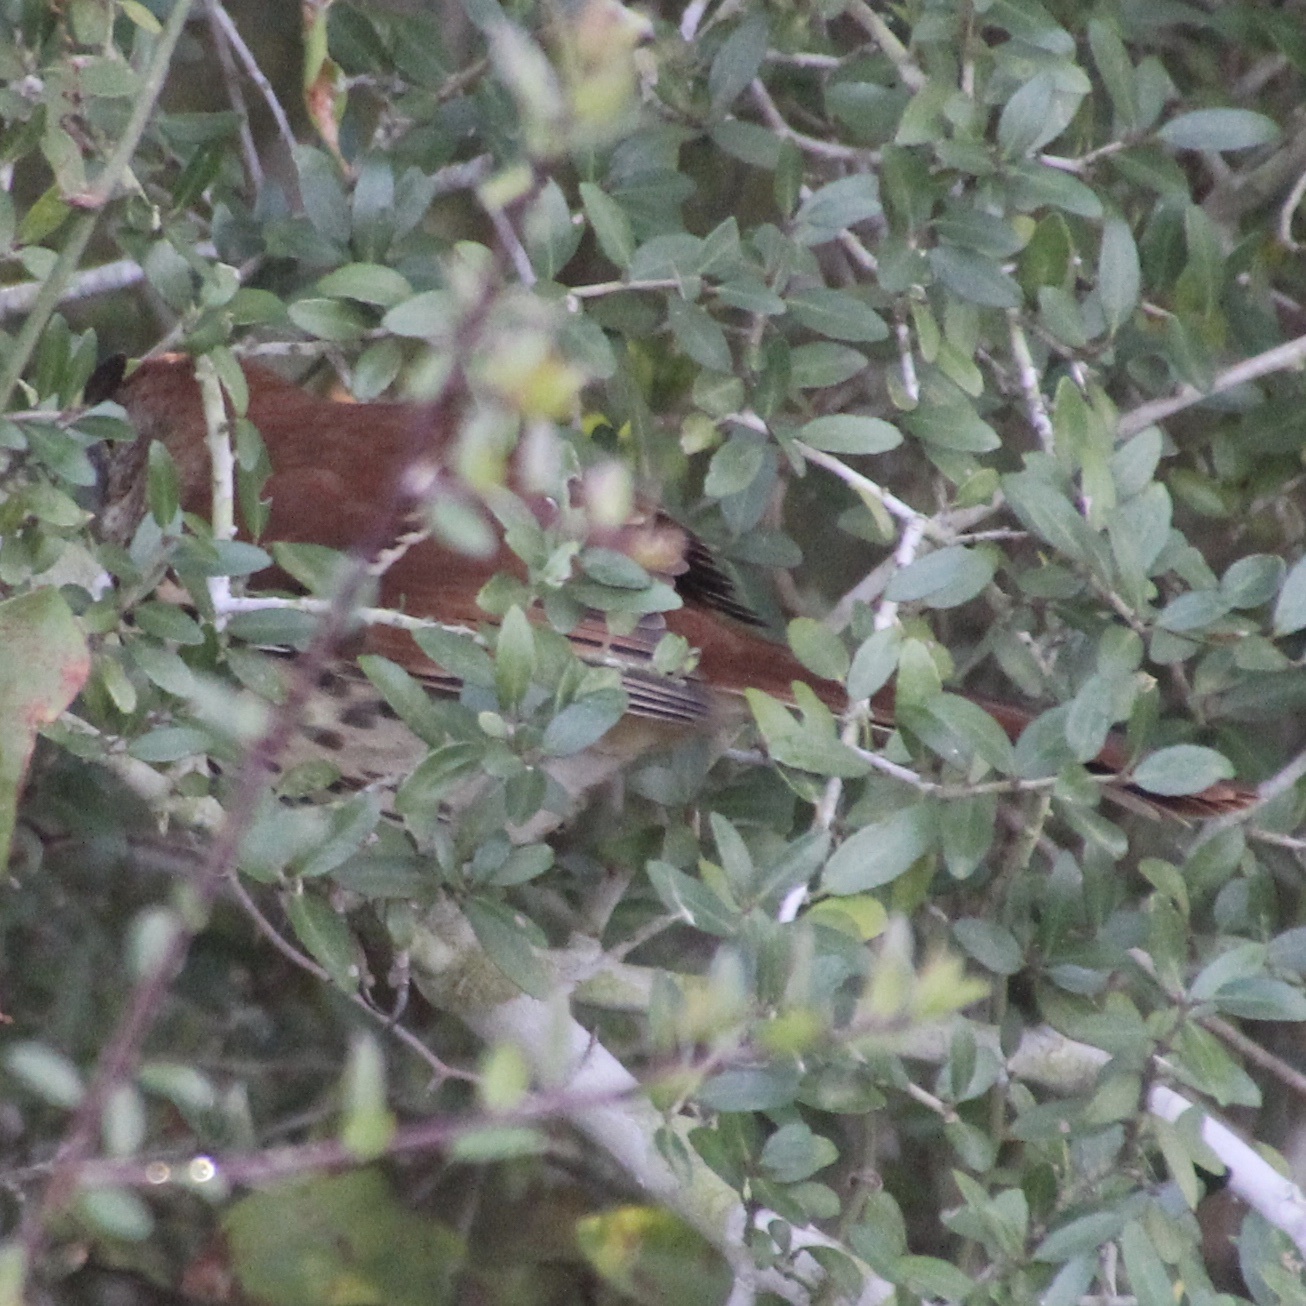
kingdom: Animalia
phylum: Chordata
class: Aves
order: Passeriformes
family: Mimidae
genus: Toxostoma
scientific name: Toxostoma rufum
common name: Brown thrasher
